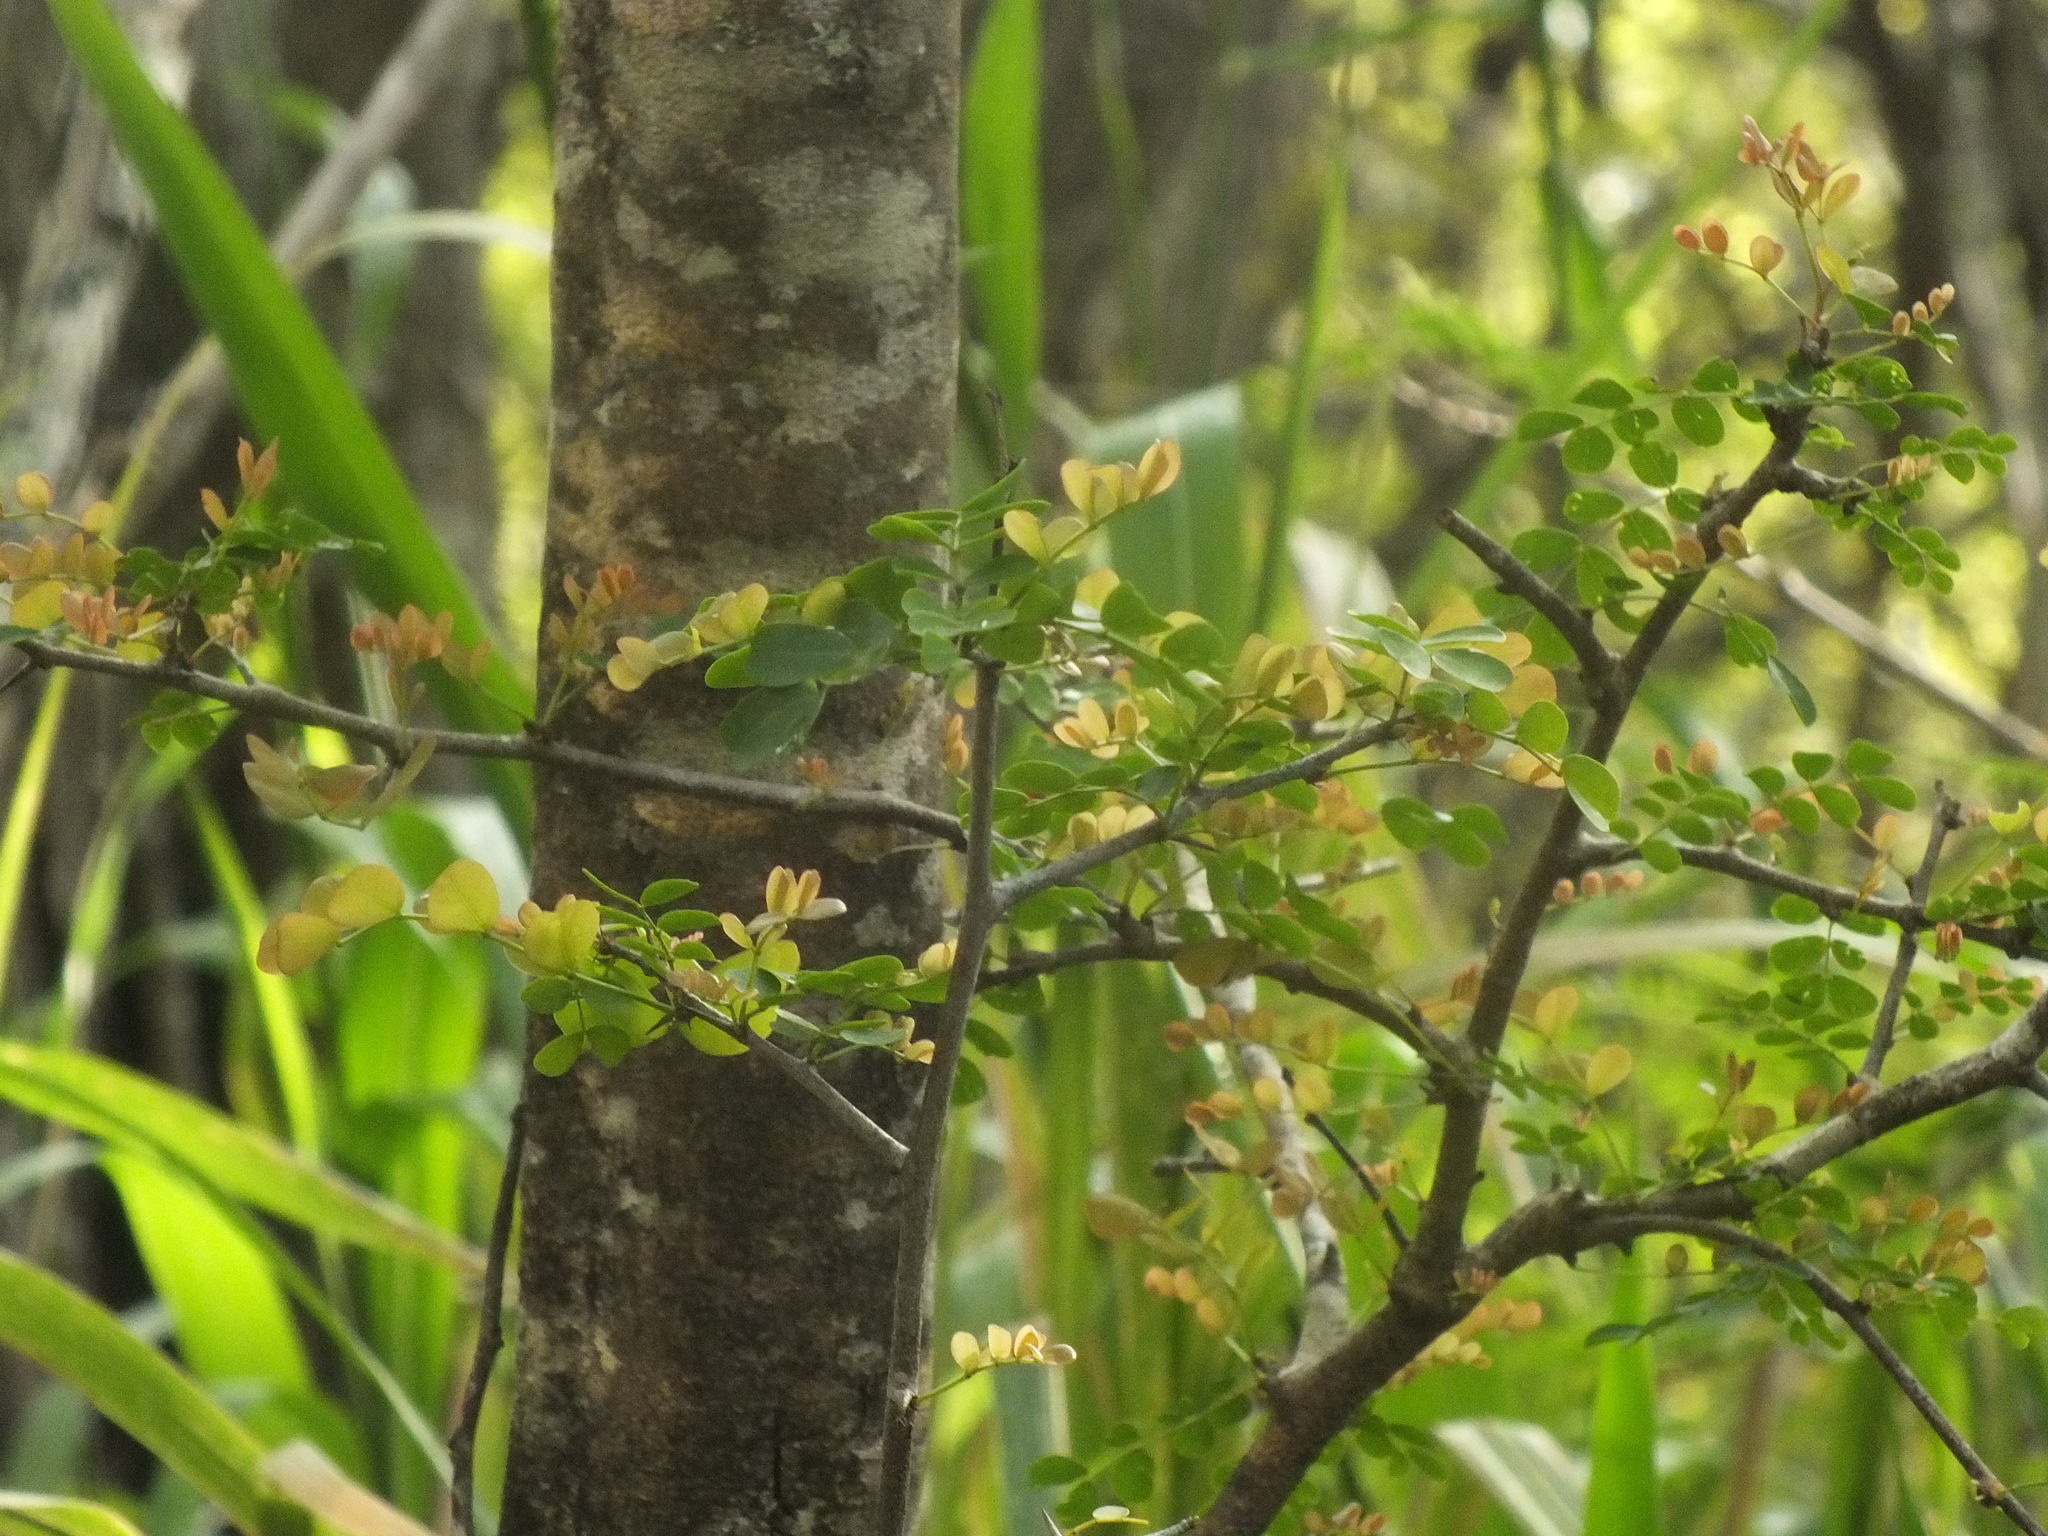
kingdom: Plantae
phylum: Tracheophyta
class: Magnoliopsida
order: Fabales
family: Fabaceae
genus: Haematoxylum
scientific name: Haematoxylum campechianum
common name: Logwood
